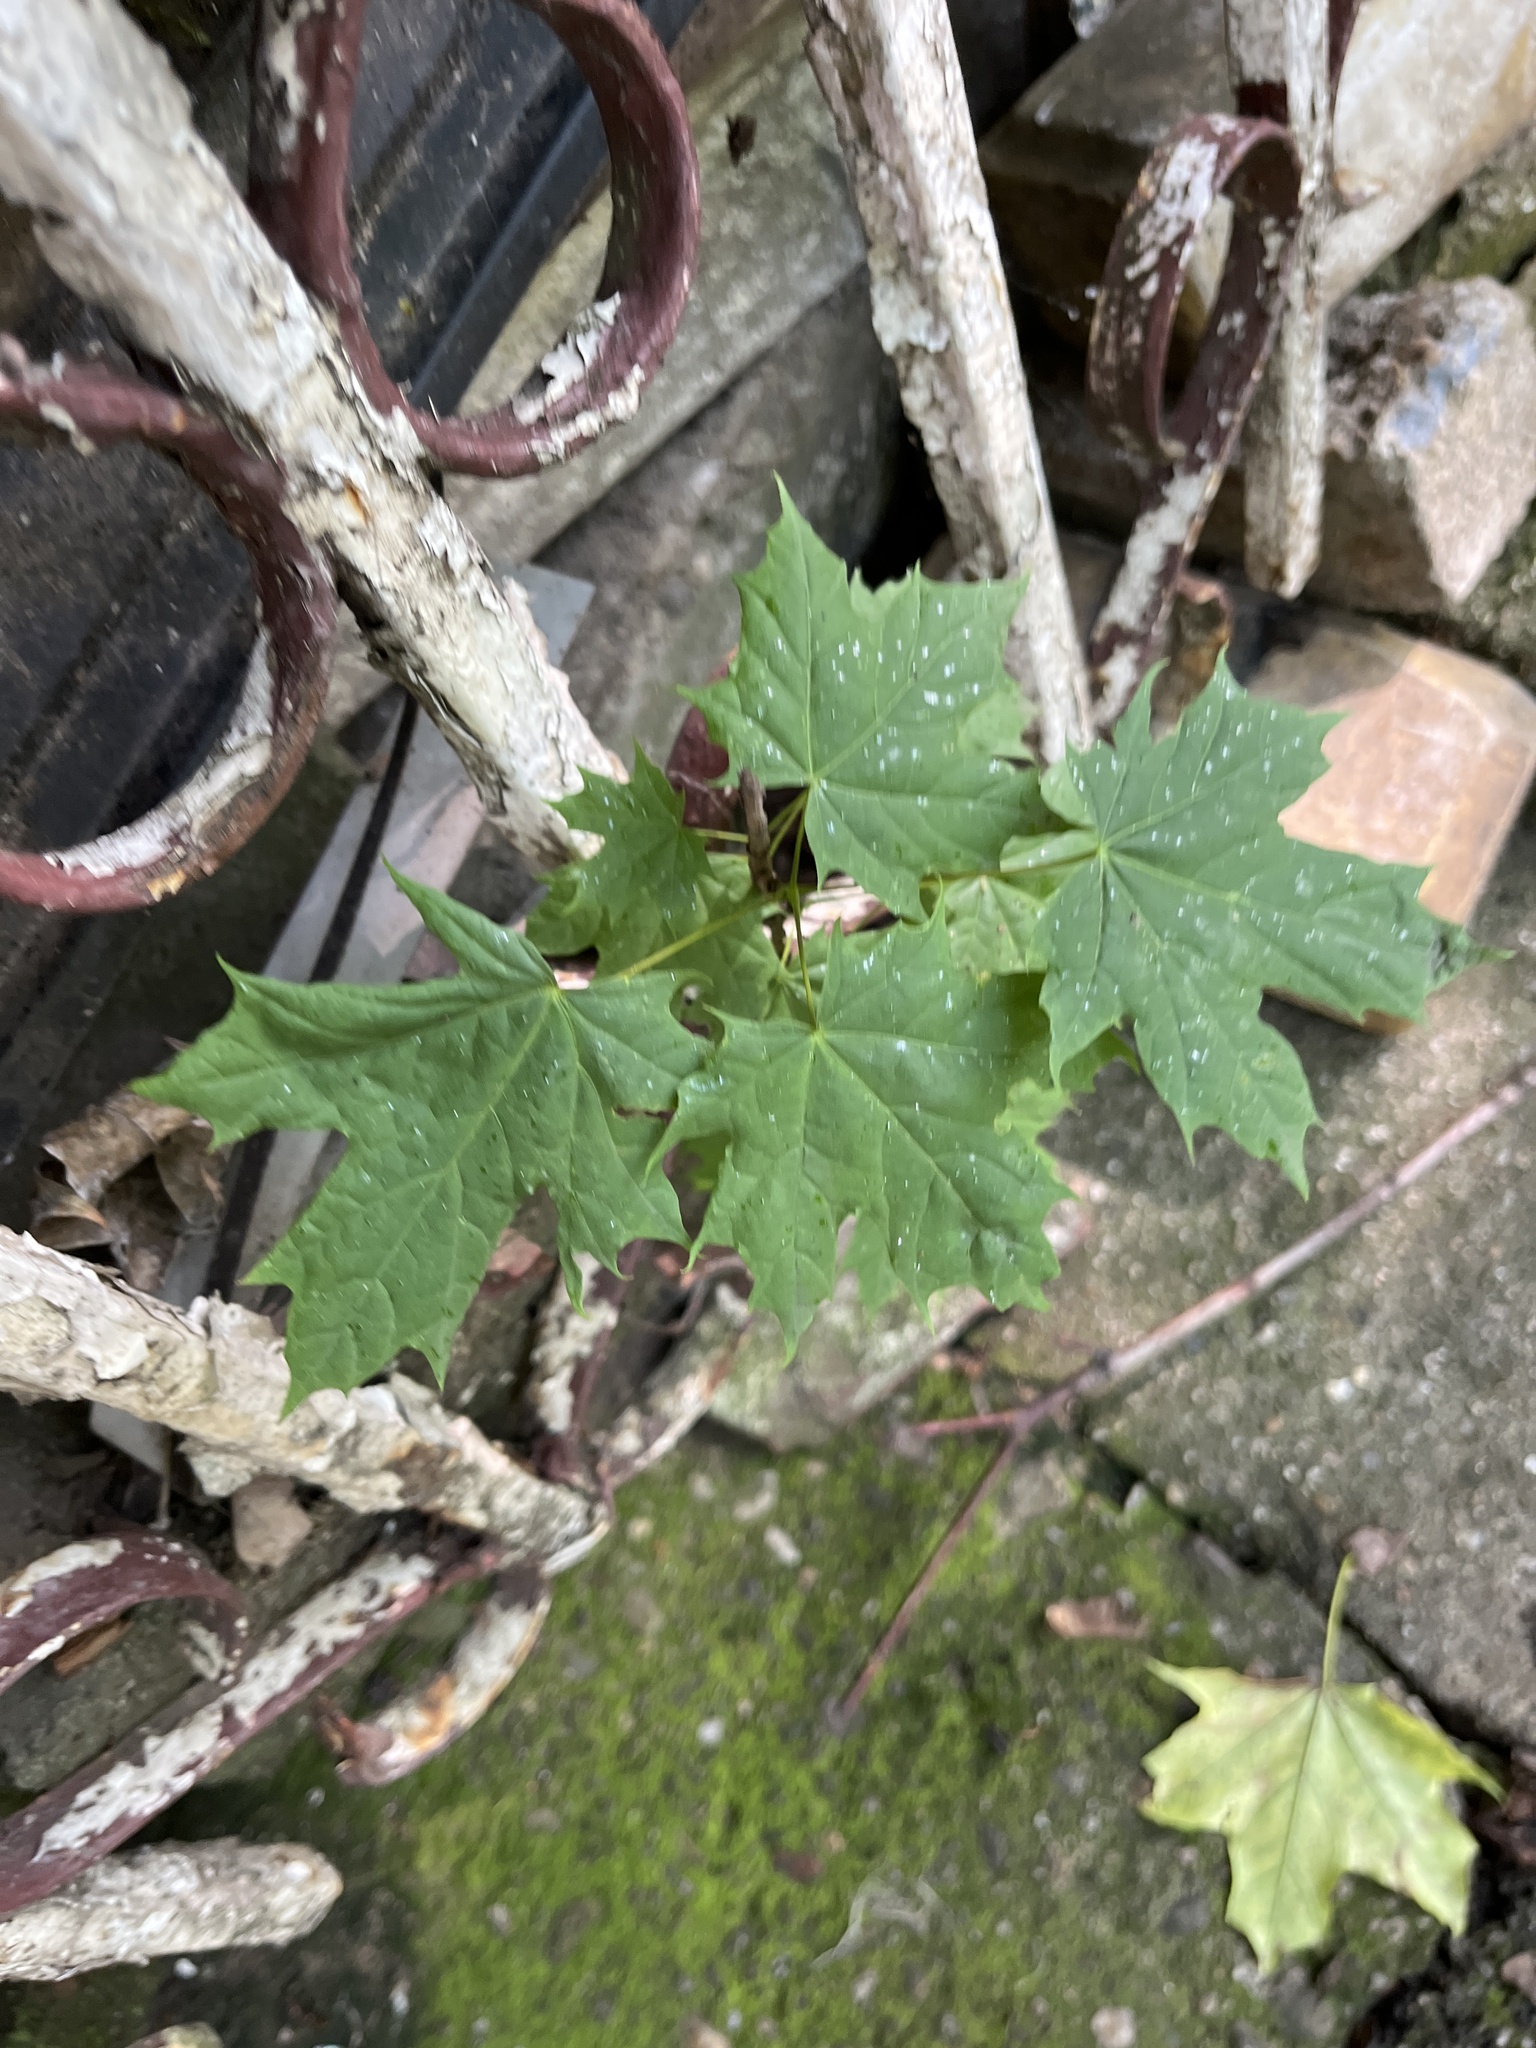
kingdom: Plantae
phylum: Tracheophyta
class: Magnoliopsida
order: Sapindales
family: Sapindaceae
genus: Acer
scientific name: Acer platanoides
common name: Norway maple
